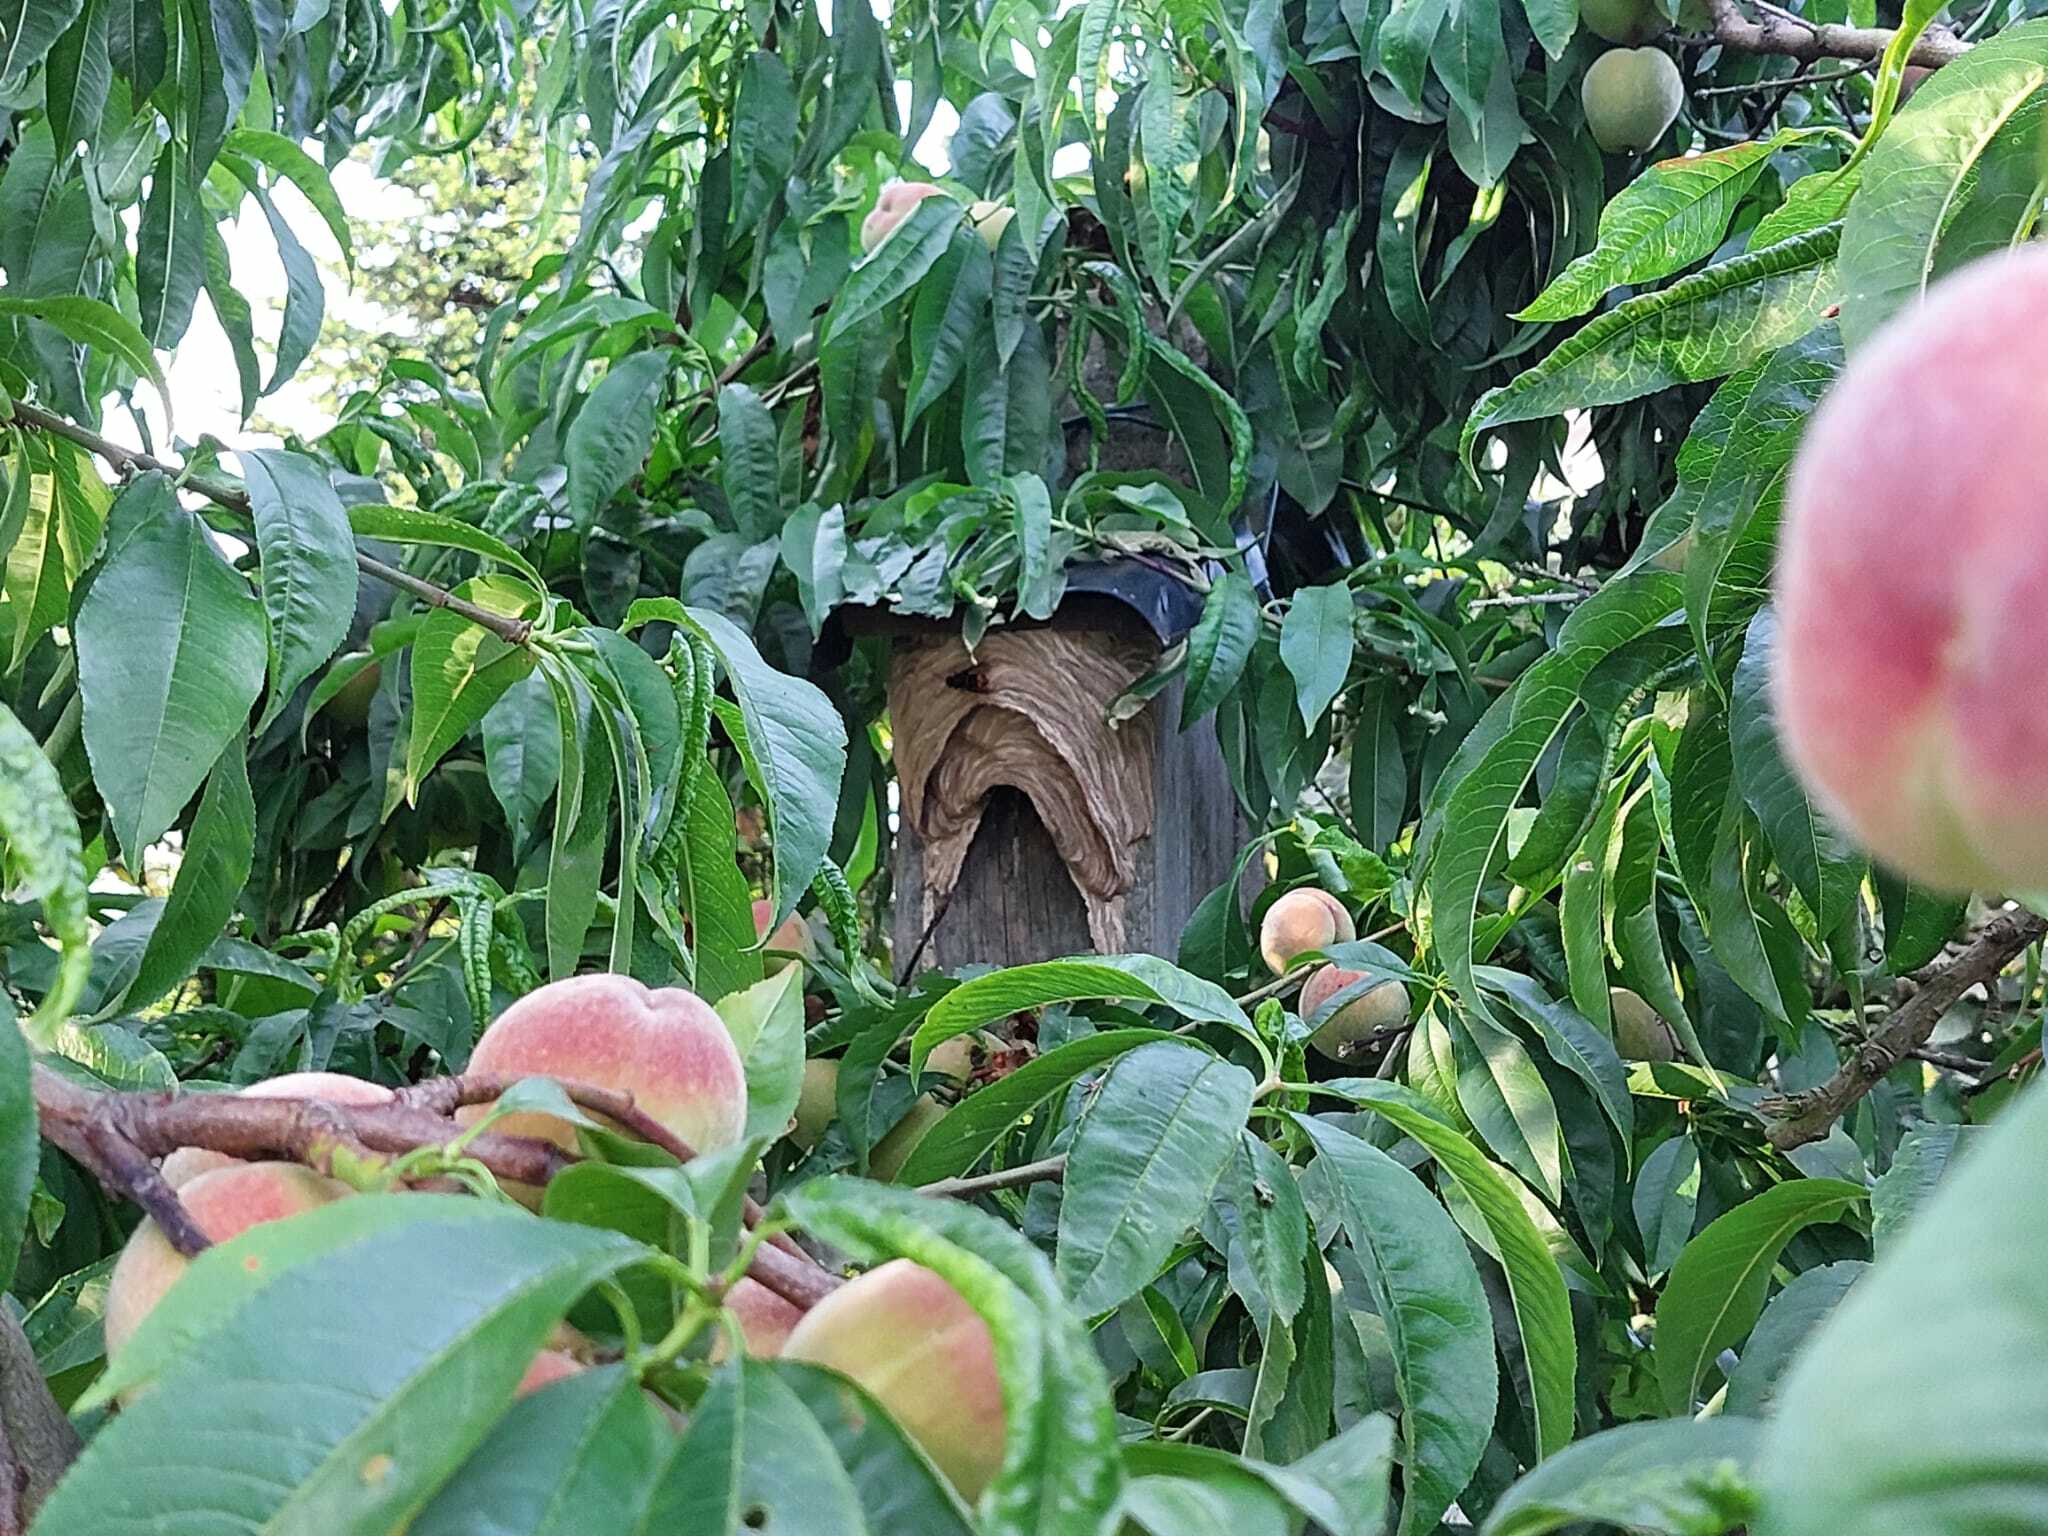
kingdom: Animalia
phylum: Arthropoda
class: Insecta
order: Hymenoptera
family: Vespidae
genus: Vespa
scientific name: Vespa velutina
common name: Asian hornet
